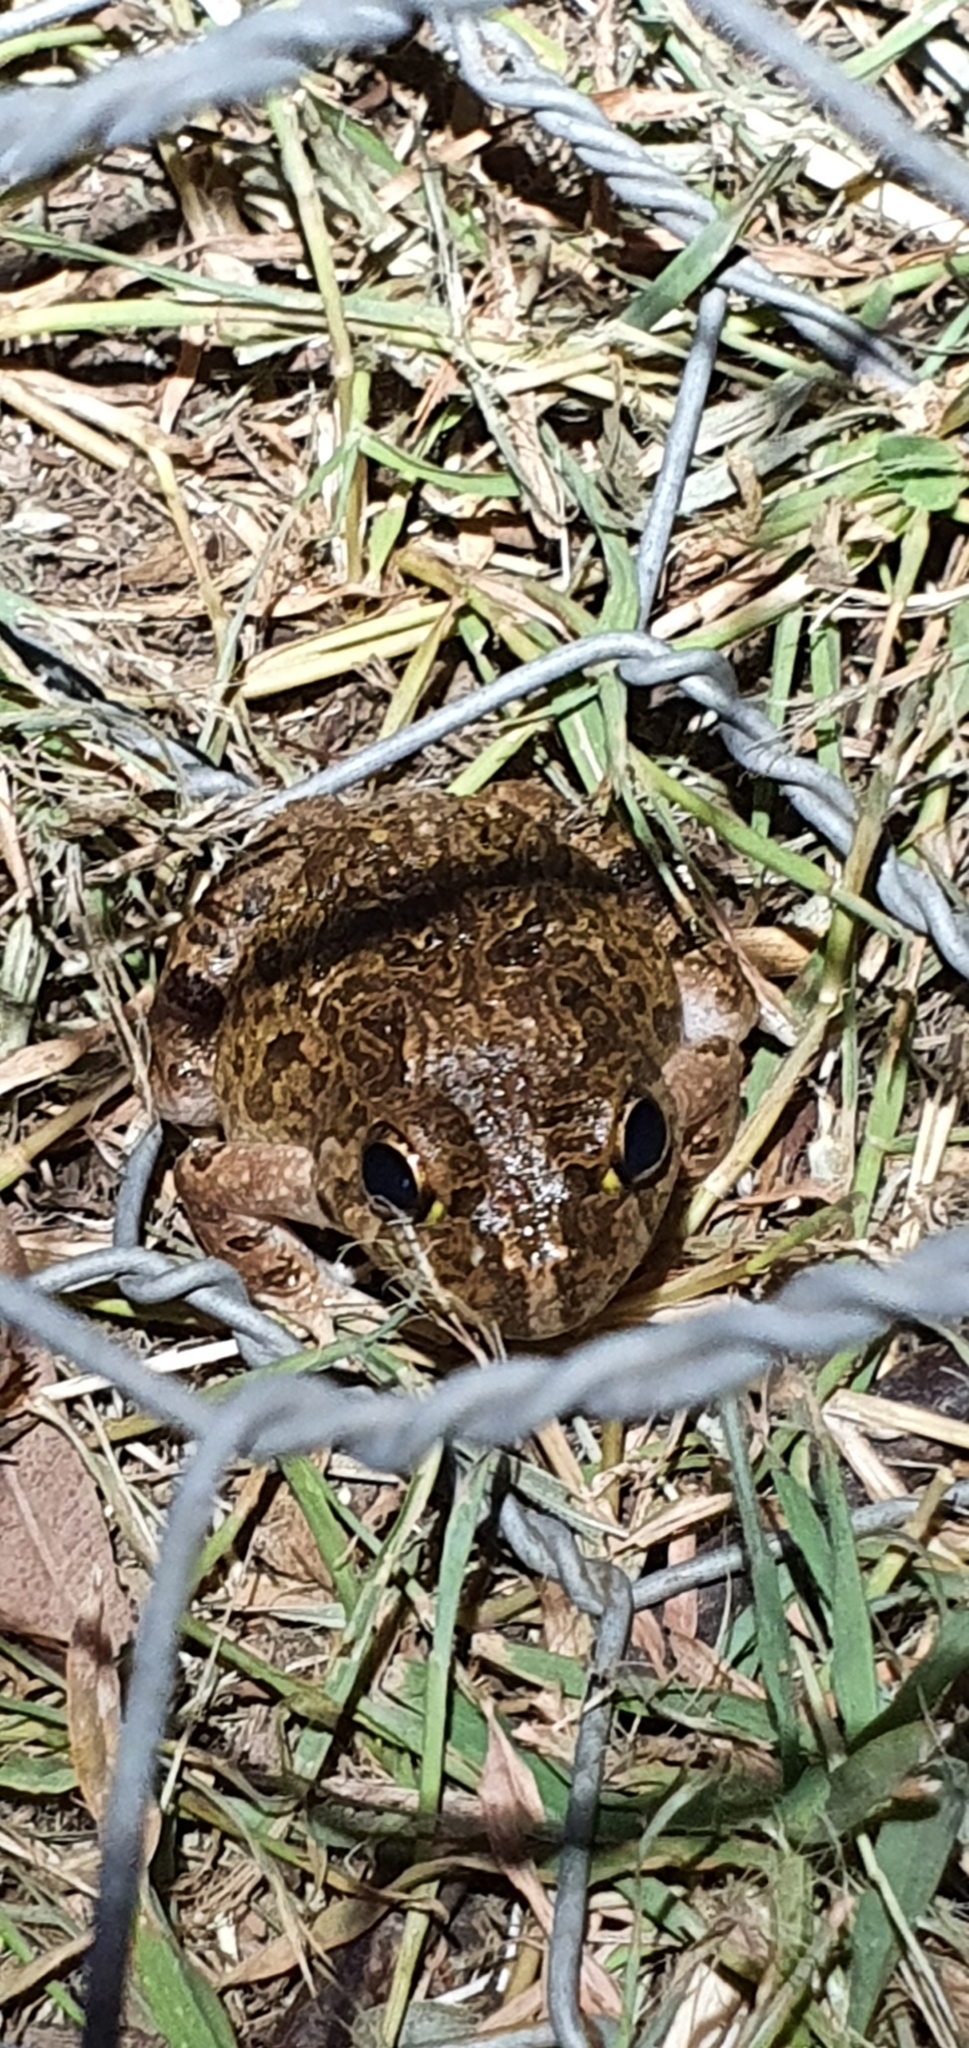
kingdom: Animalia
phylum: Chordata
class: Amphibia
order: Anura
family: Limnodynastidae
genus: Platyplectrum
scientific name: Platyplectrum ornatum
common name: Ornate burrowing frog
